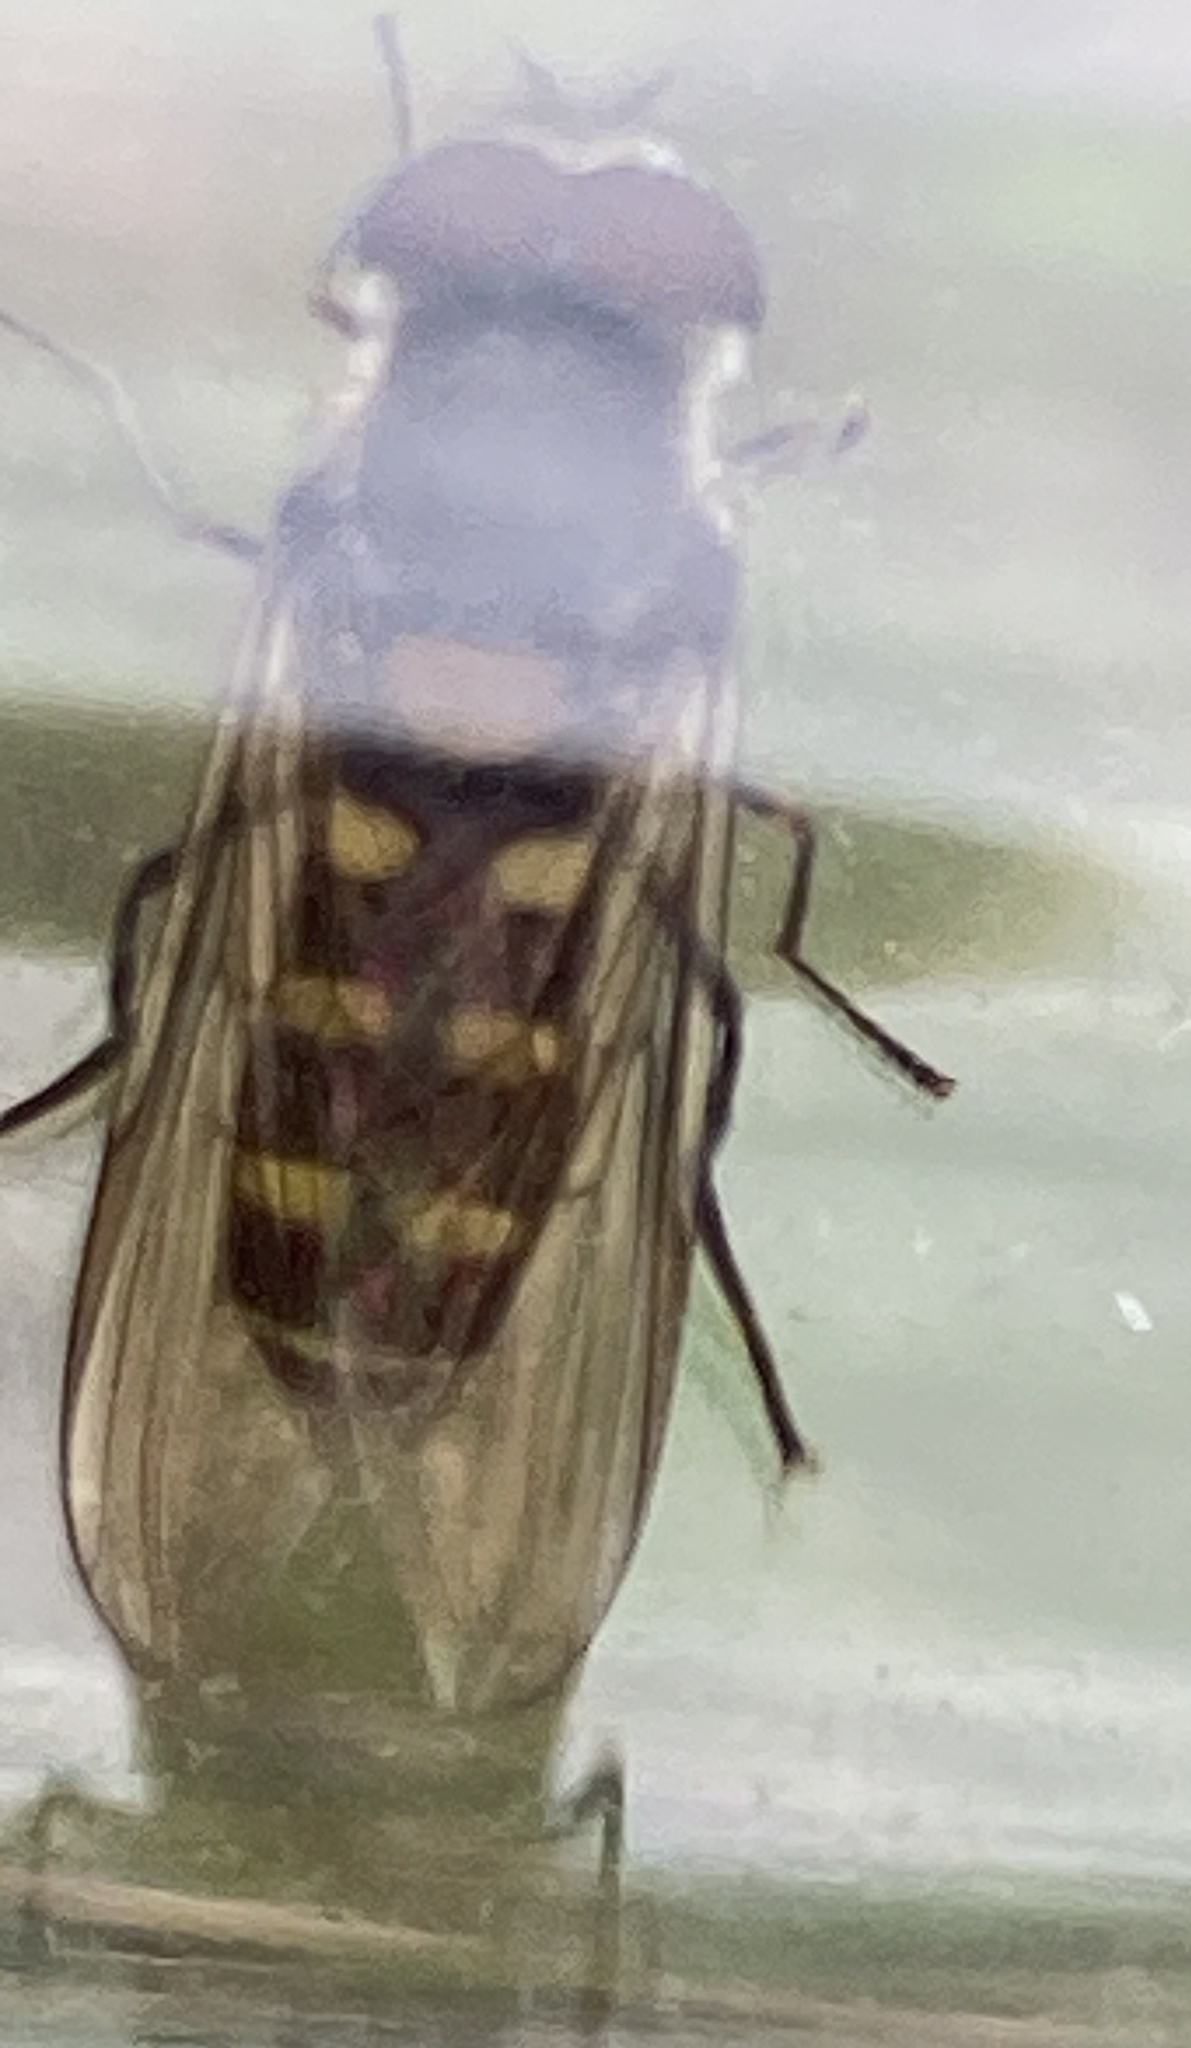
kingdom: Animalia
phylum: Arthropoda
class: Insecta
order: Diptera
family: Syrphidae
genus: Melangyna
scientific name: Melangyna sexguttata
